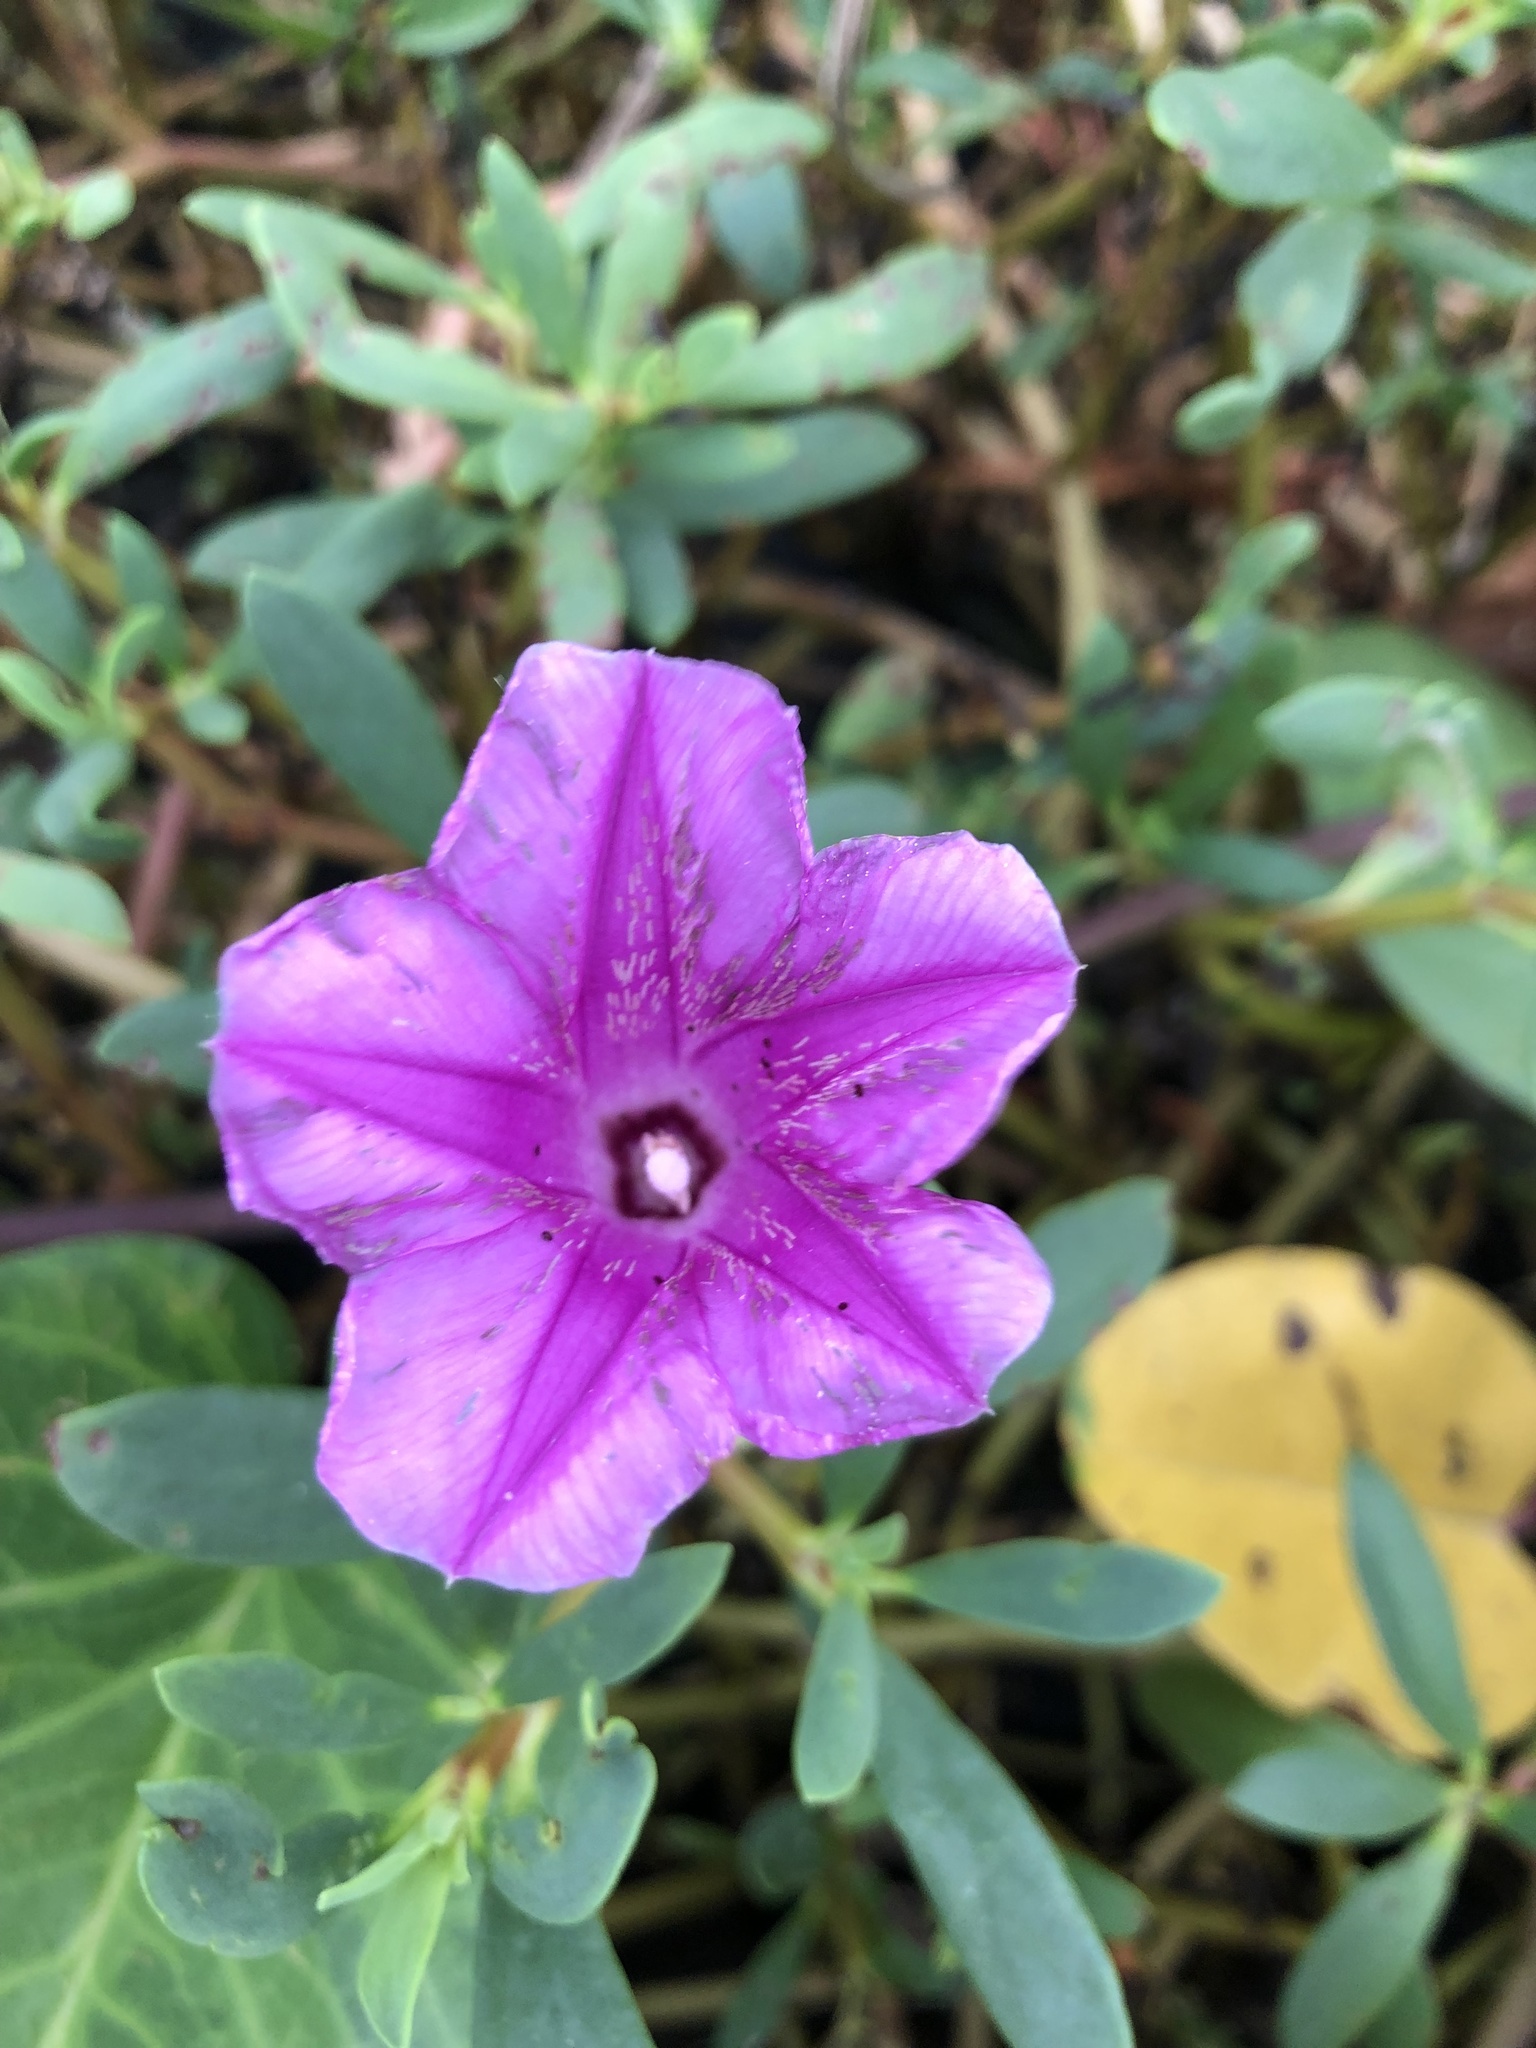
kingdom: Plantae
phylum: Tracheophyta
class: Magnoliopsida
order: Solanales
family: Convolvulaceae
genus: Ipomoea
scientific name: Ipomoea pes-caprae
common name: Beach morning glory
